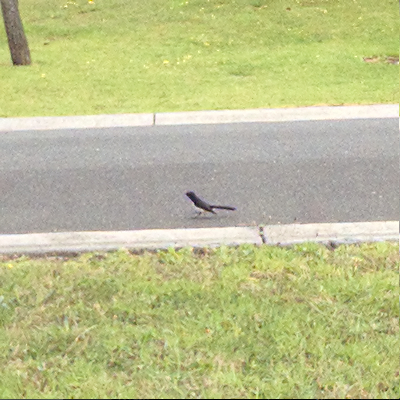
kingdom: Animalia
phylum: Chordata
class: Aves
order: Passeriformes
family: Rhipiduridae
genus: Rhipidura
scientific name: Rhipidura leucophrys
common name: Willie wagtail
